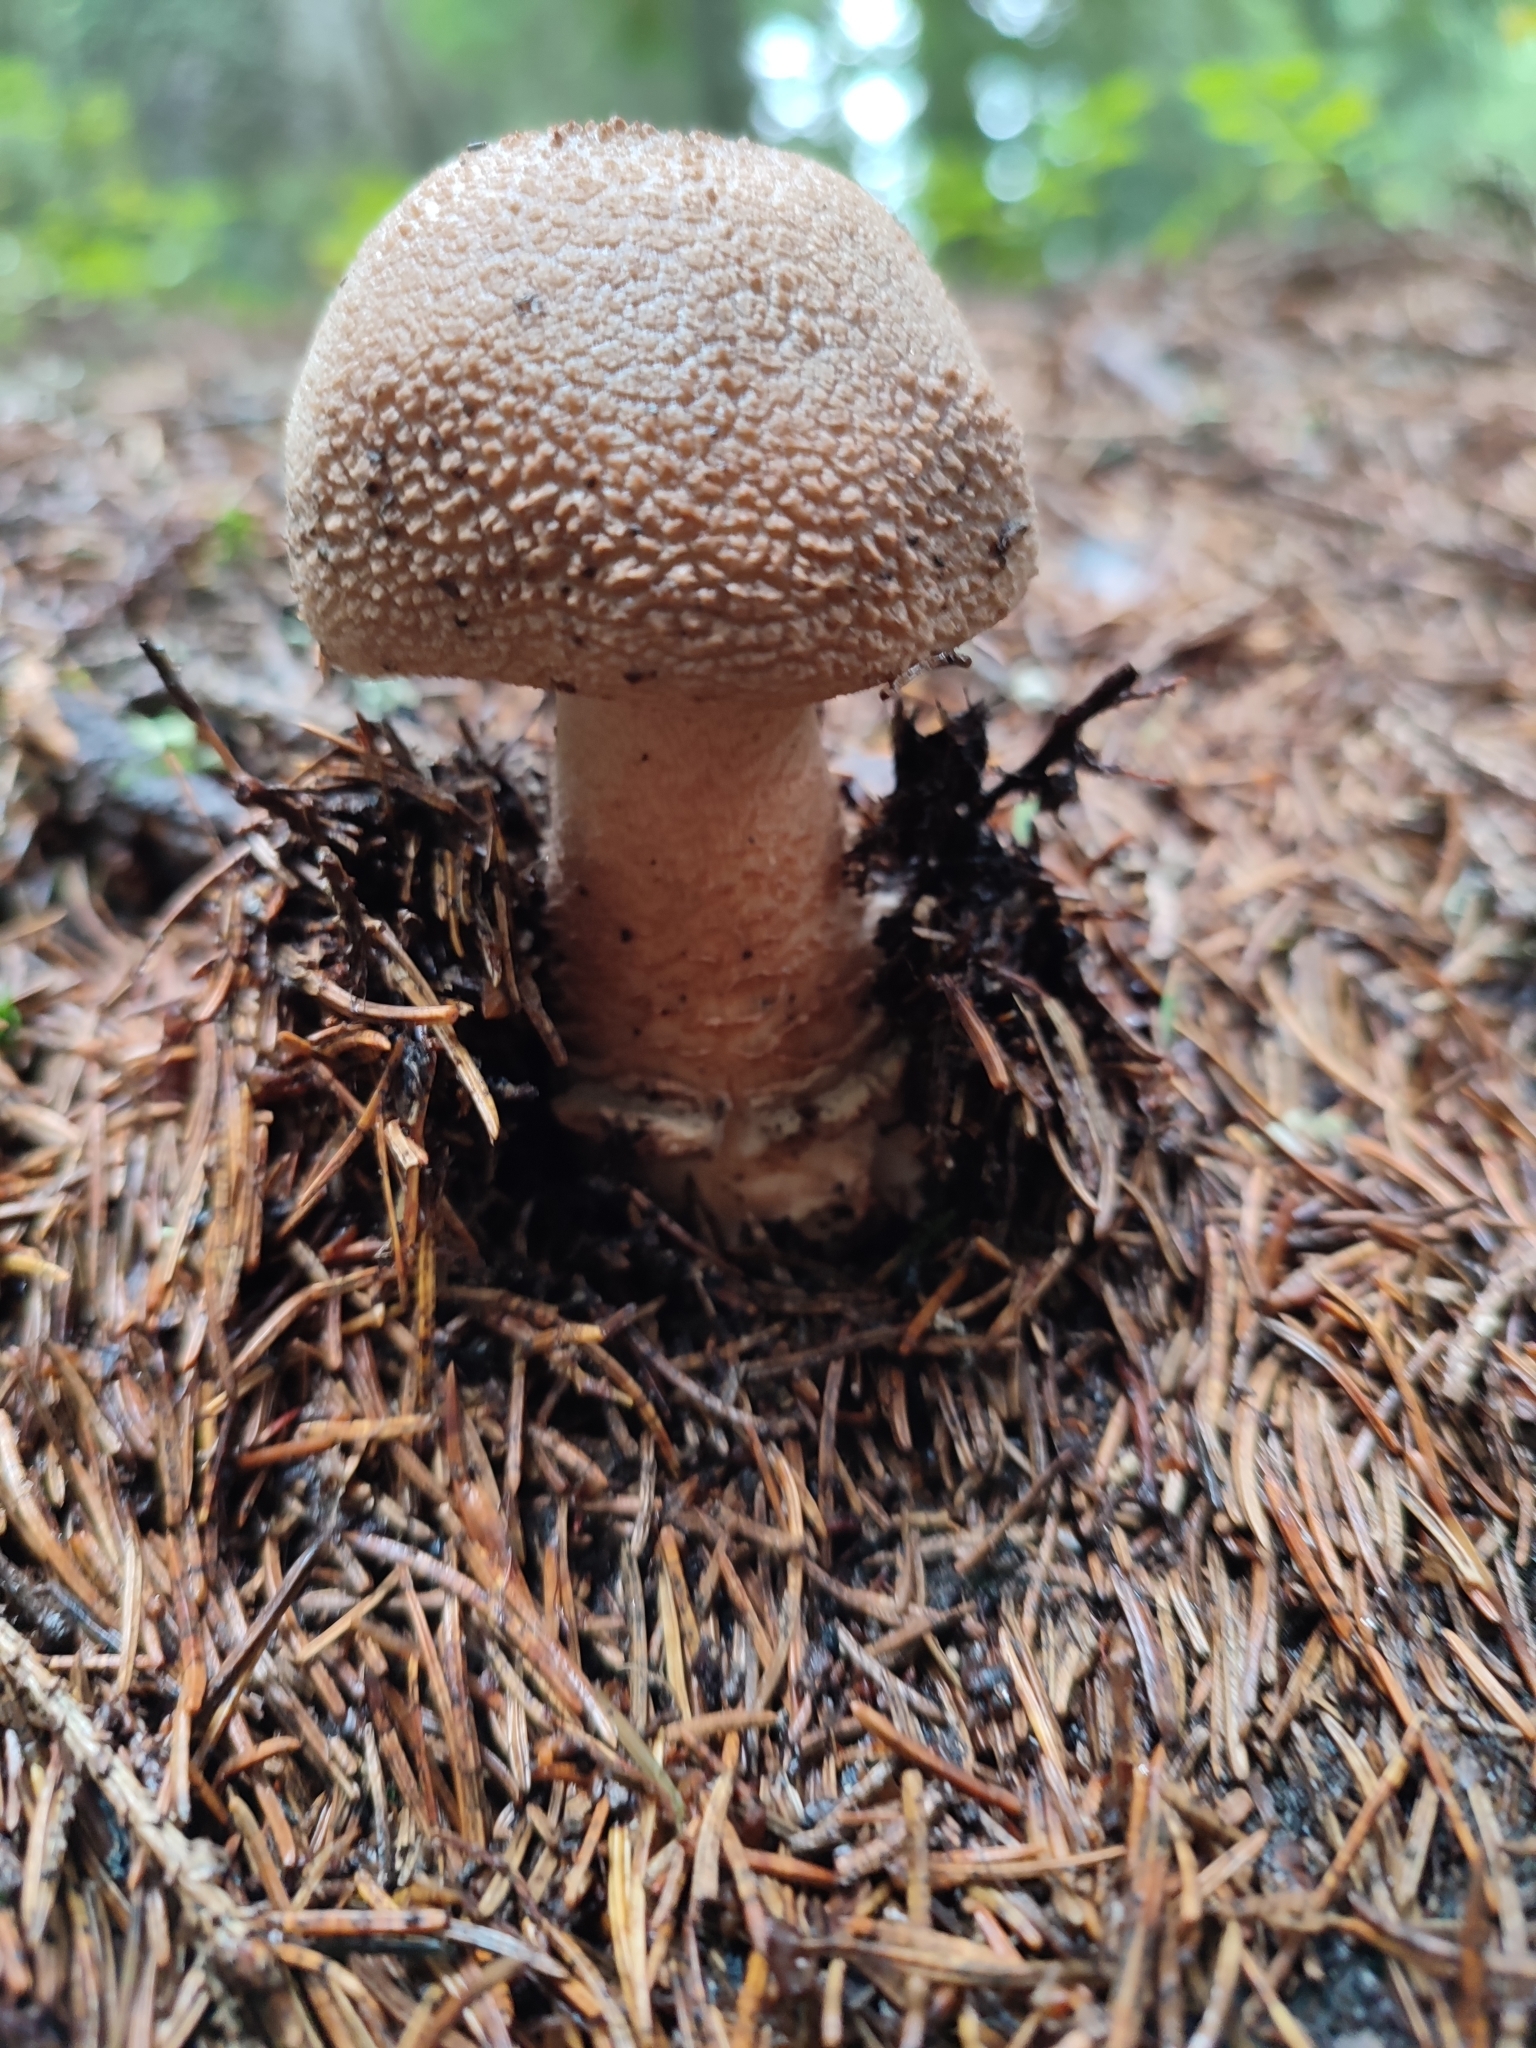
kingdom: Fungi
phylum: Basidiomycota
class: Agaricomycetes
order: Agaricales
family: Amanitaceae
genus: Amanita
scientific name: Amanita rubescens
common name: Blusher
